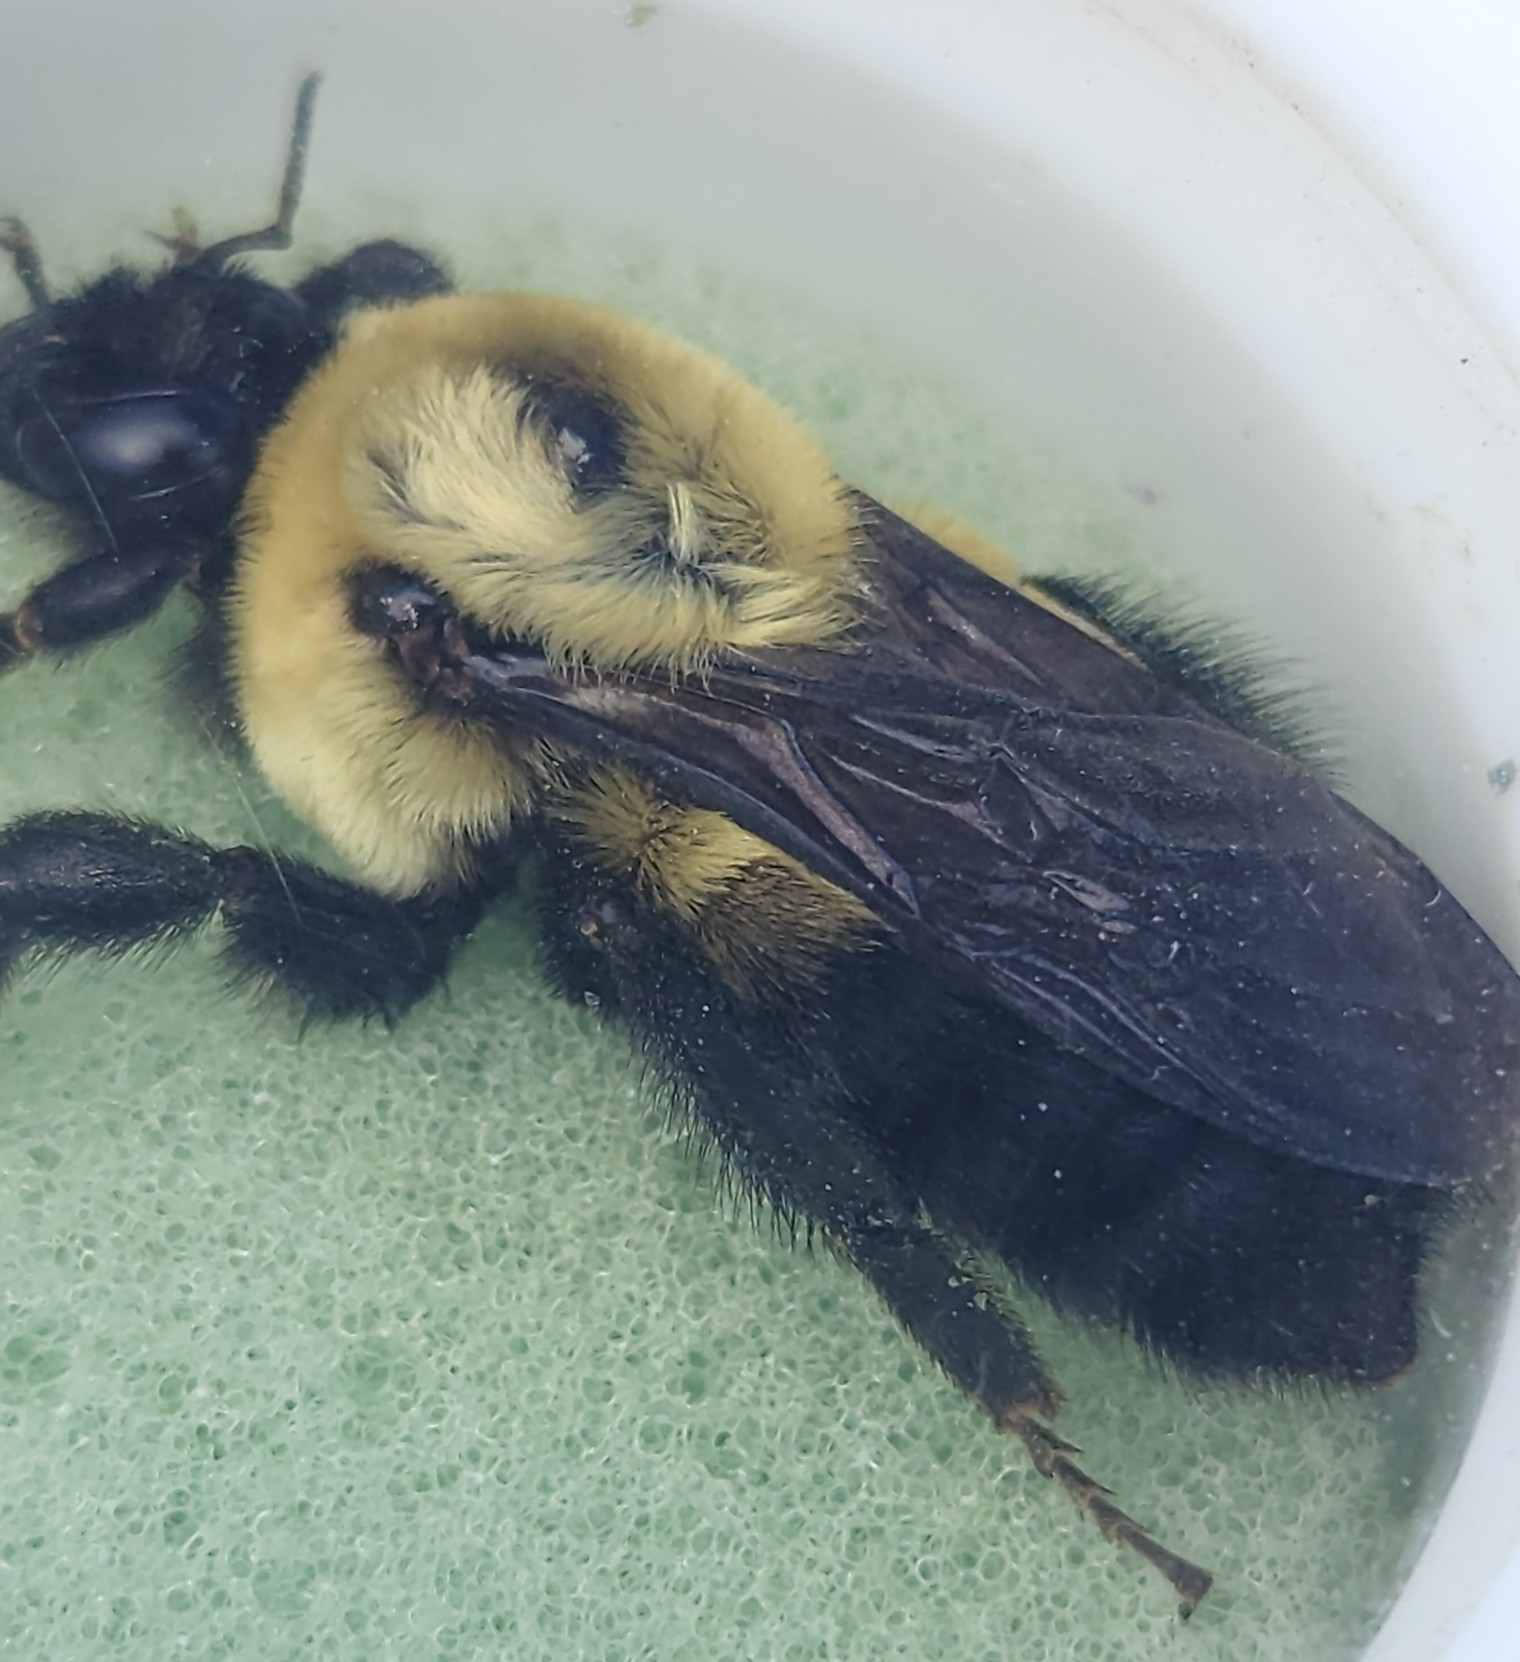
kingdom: Animalia
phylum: Arthropoda
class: Insecta
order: Hymenoptera
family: Apidae
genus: Bombus
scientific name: Bombus griseocollis
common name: Brown-belted bumble bee
